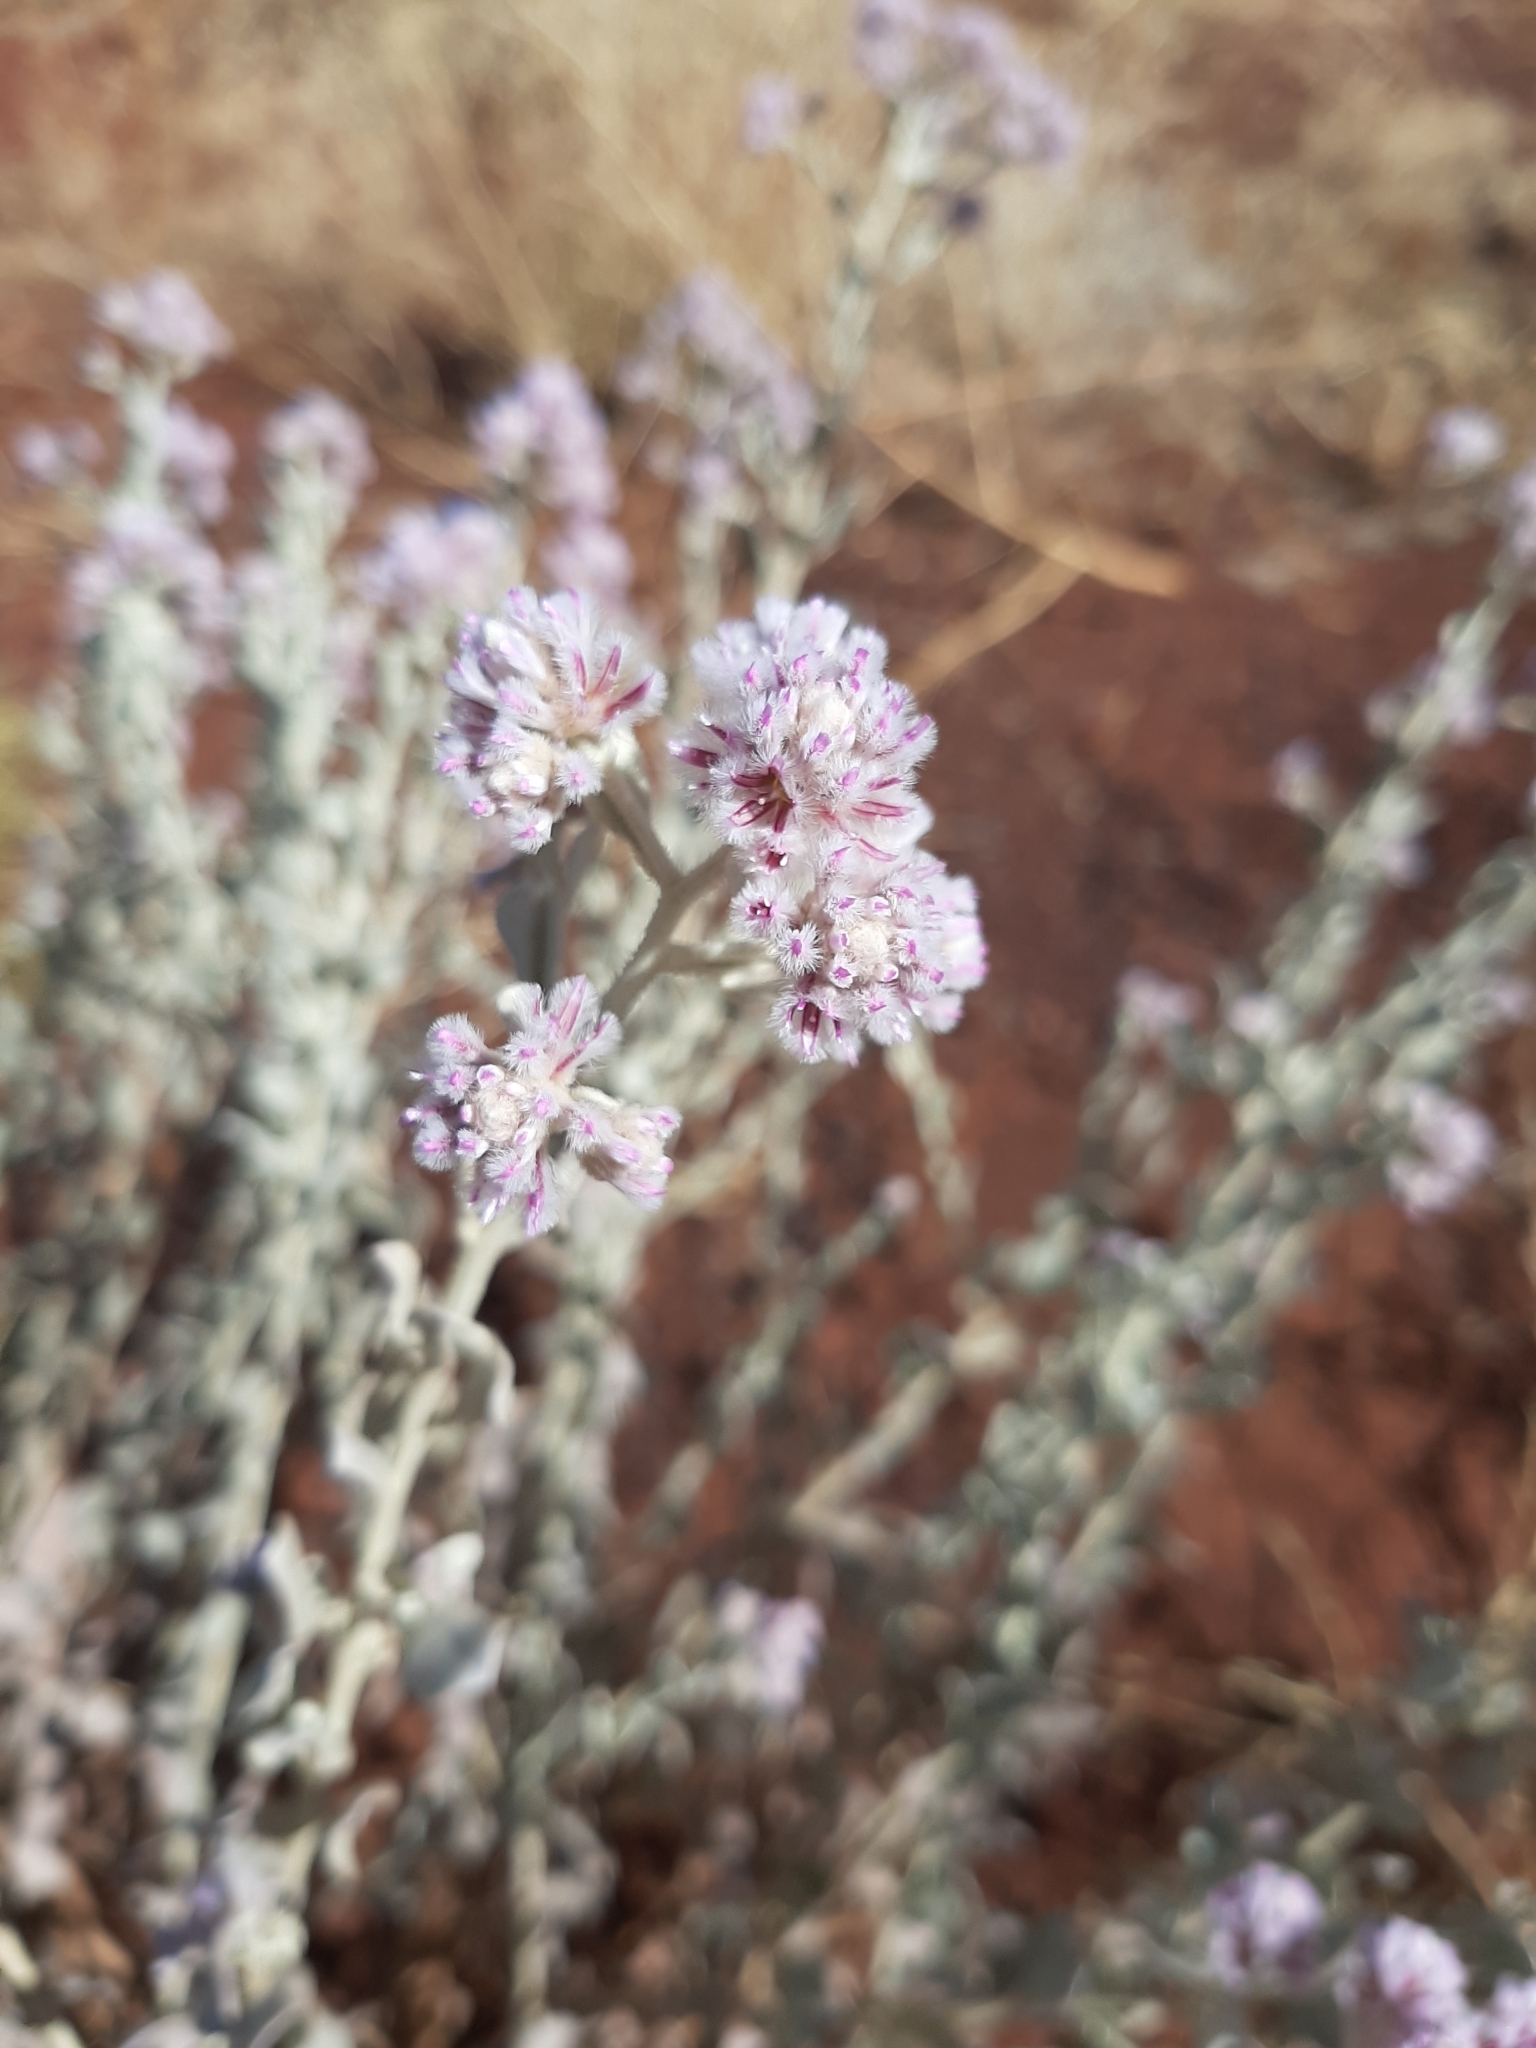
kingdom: Plantae
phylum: Tracheophyta
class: Magnoliopsida
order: Caryophyllales
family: Amaranthaceae
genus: Ptilotus
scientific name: Ptilotus obovatus
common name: Cottonbush
